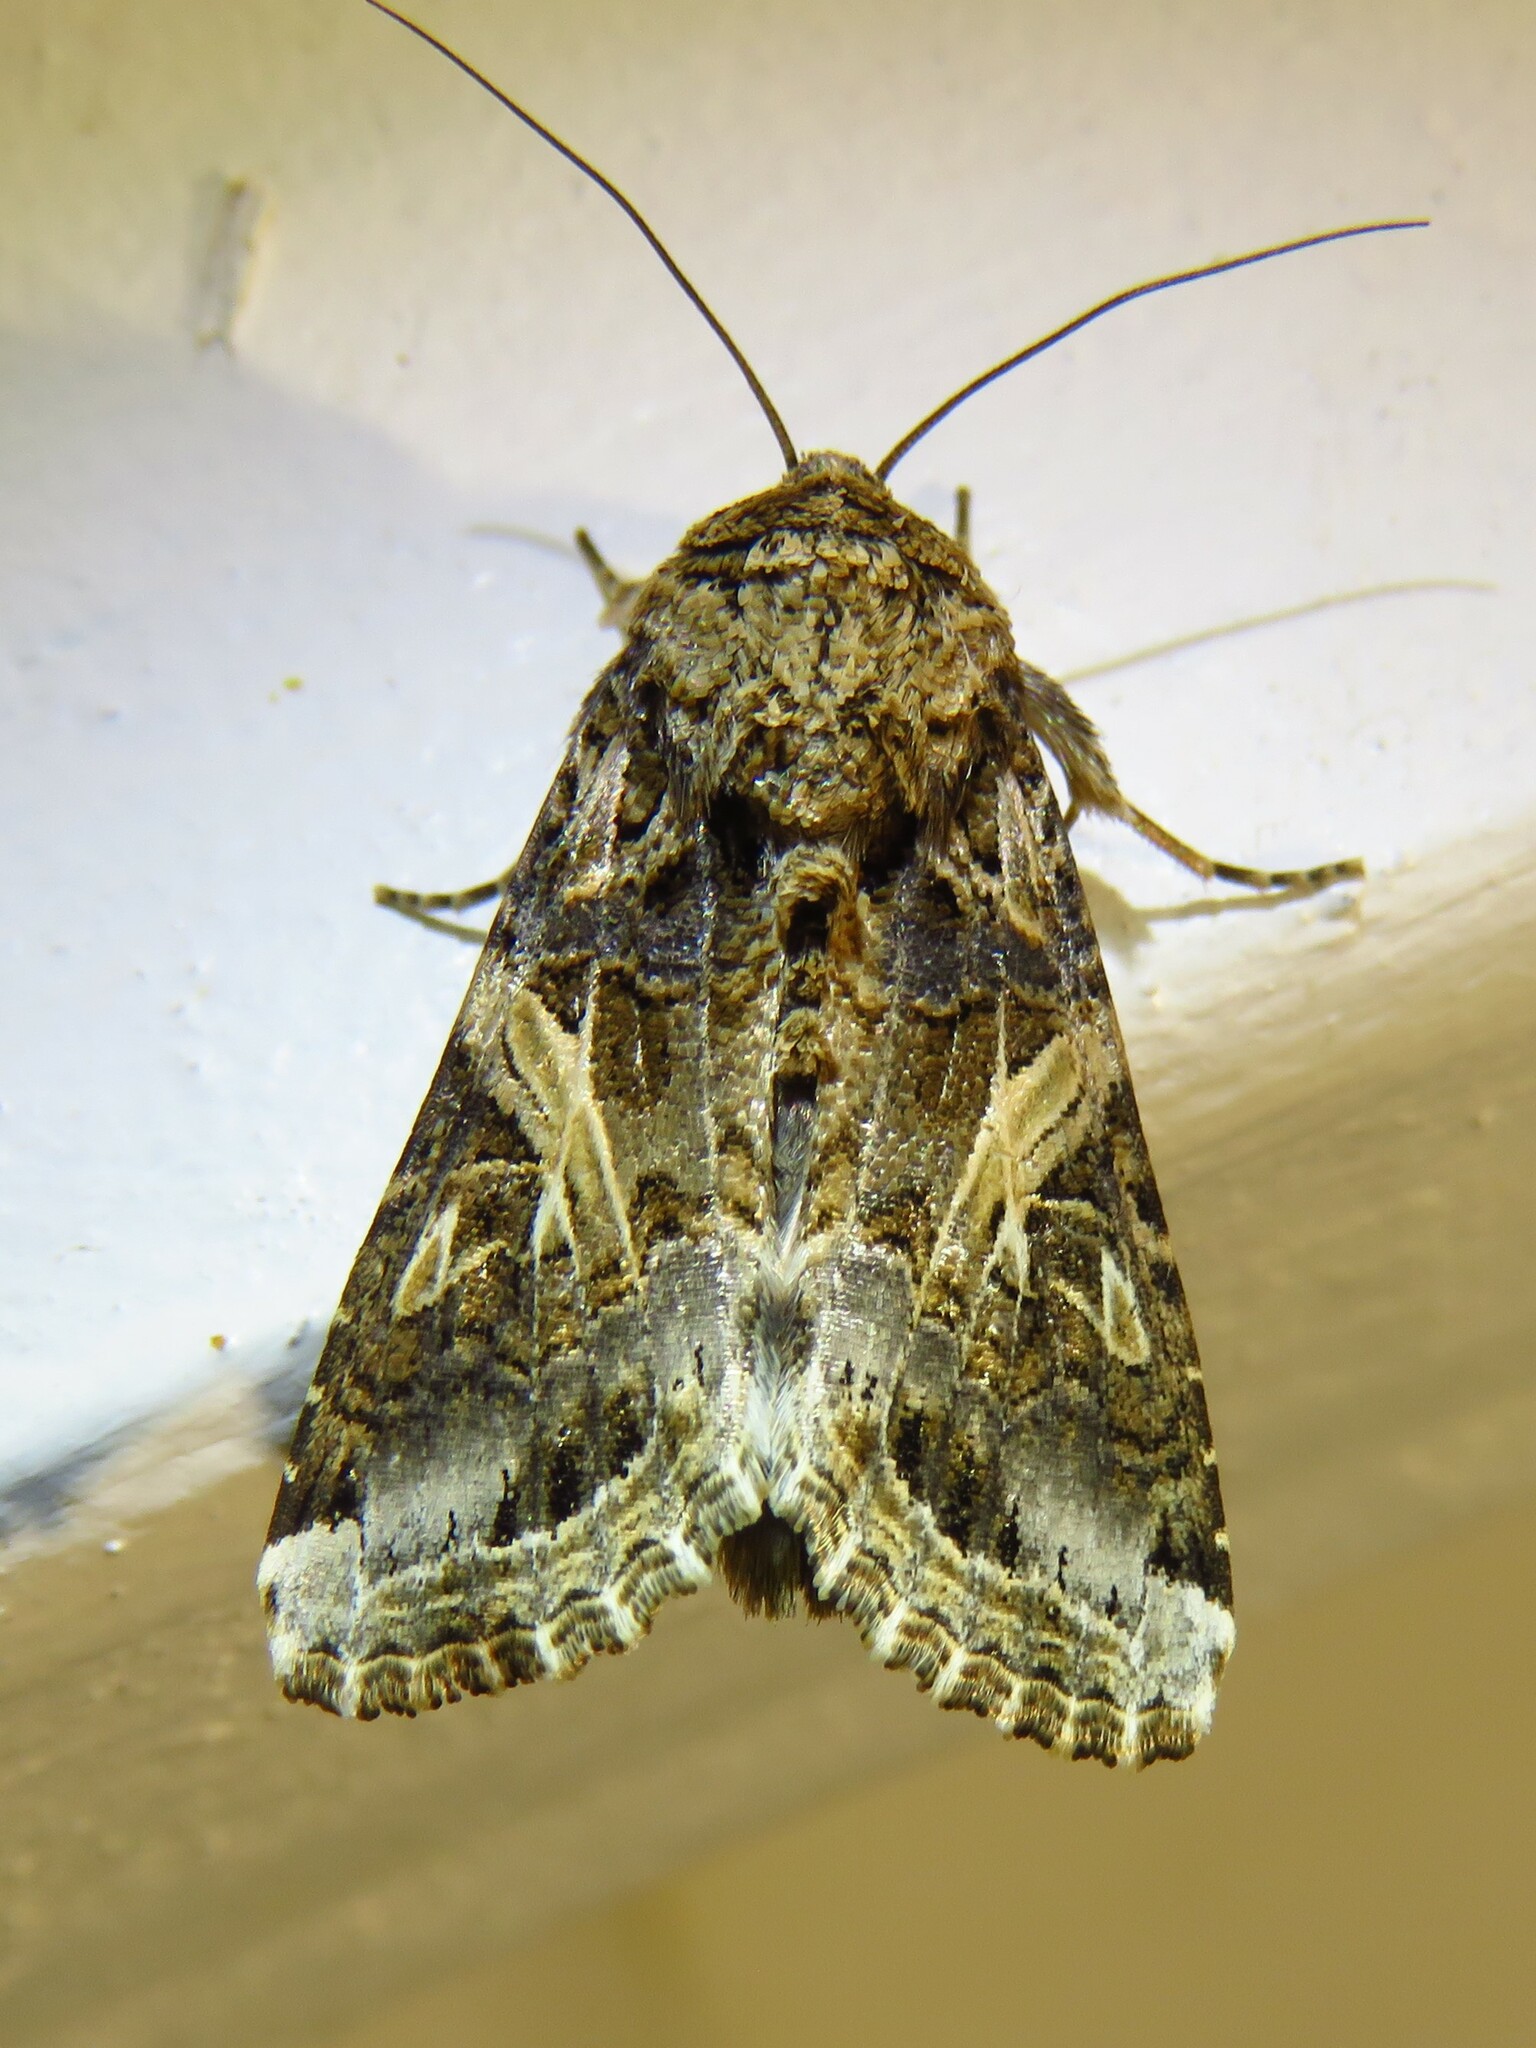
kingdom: Animalia
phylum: Arthropoda
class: Insecta
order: Lepidoptera
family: Noctuidae
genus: Spodoptera
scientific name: Spodoptera ornithogalli
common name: Yellow-striped armyworm
